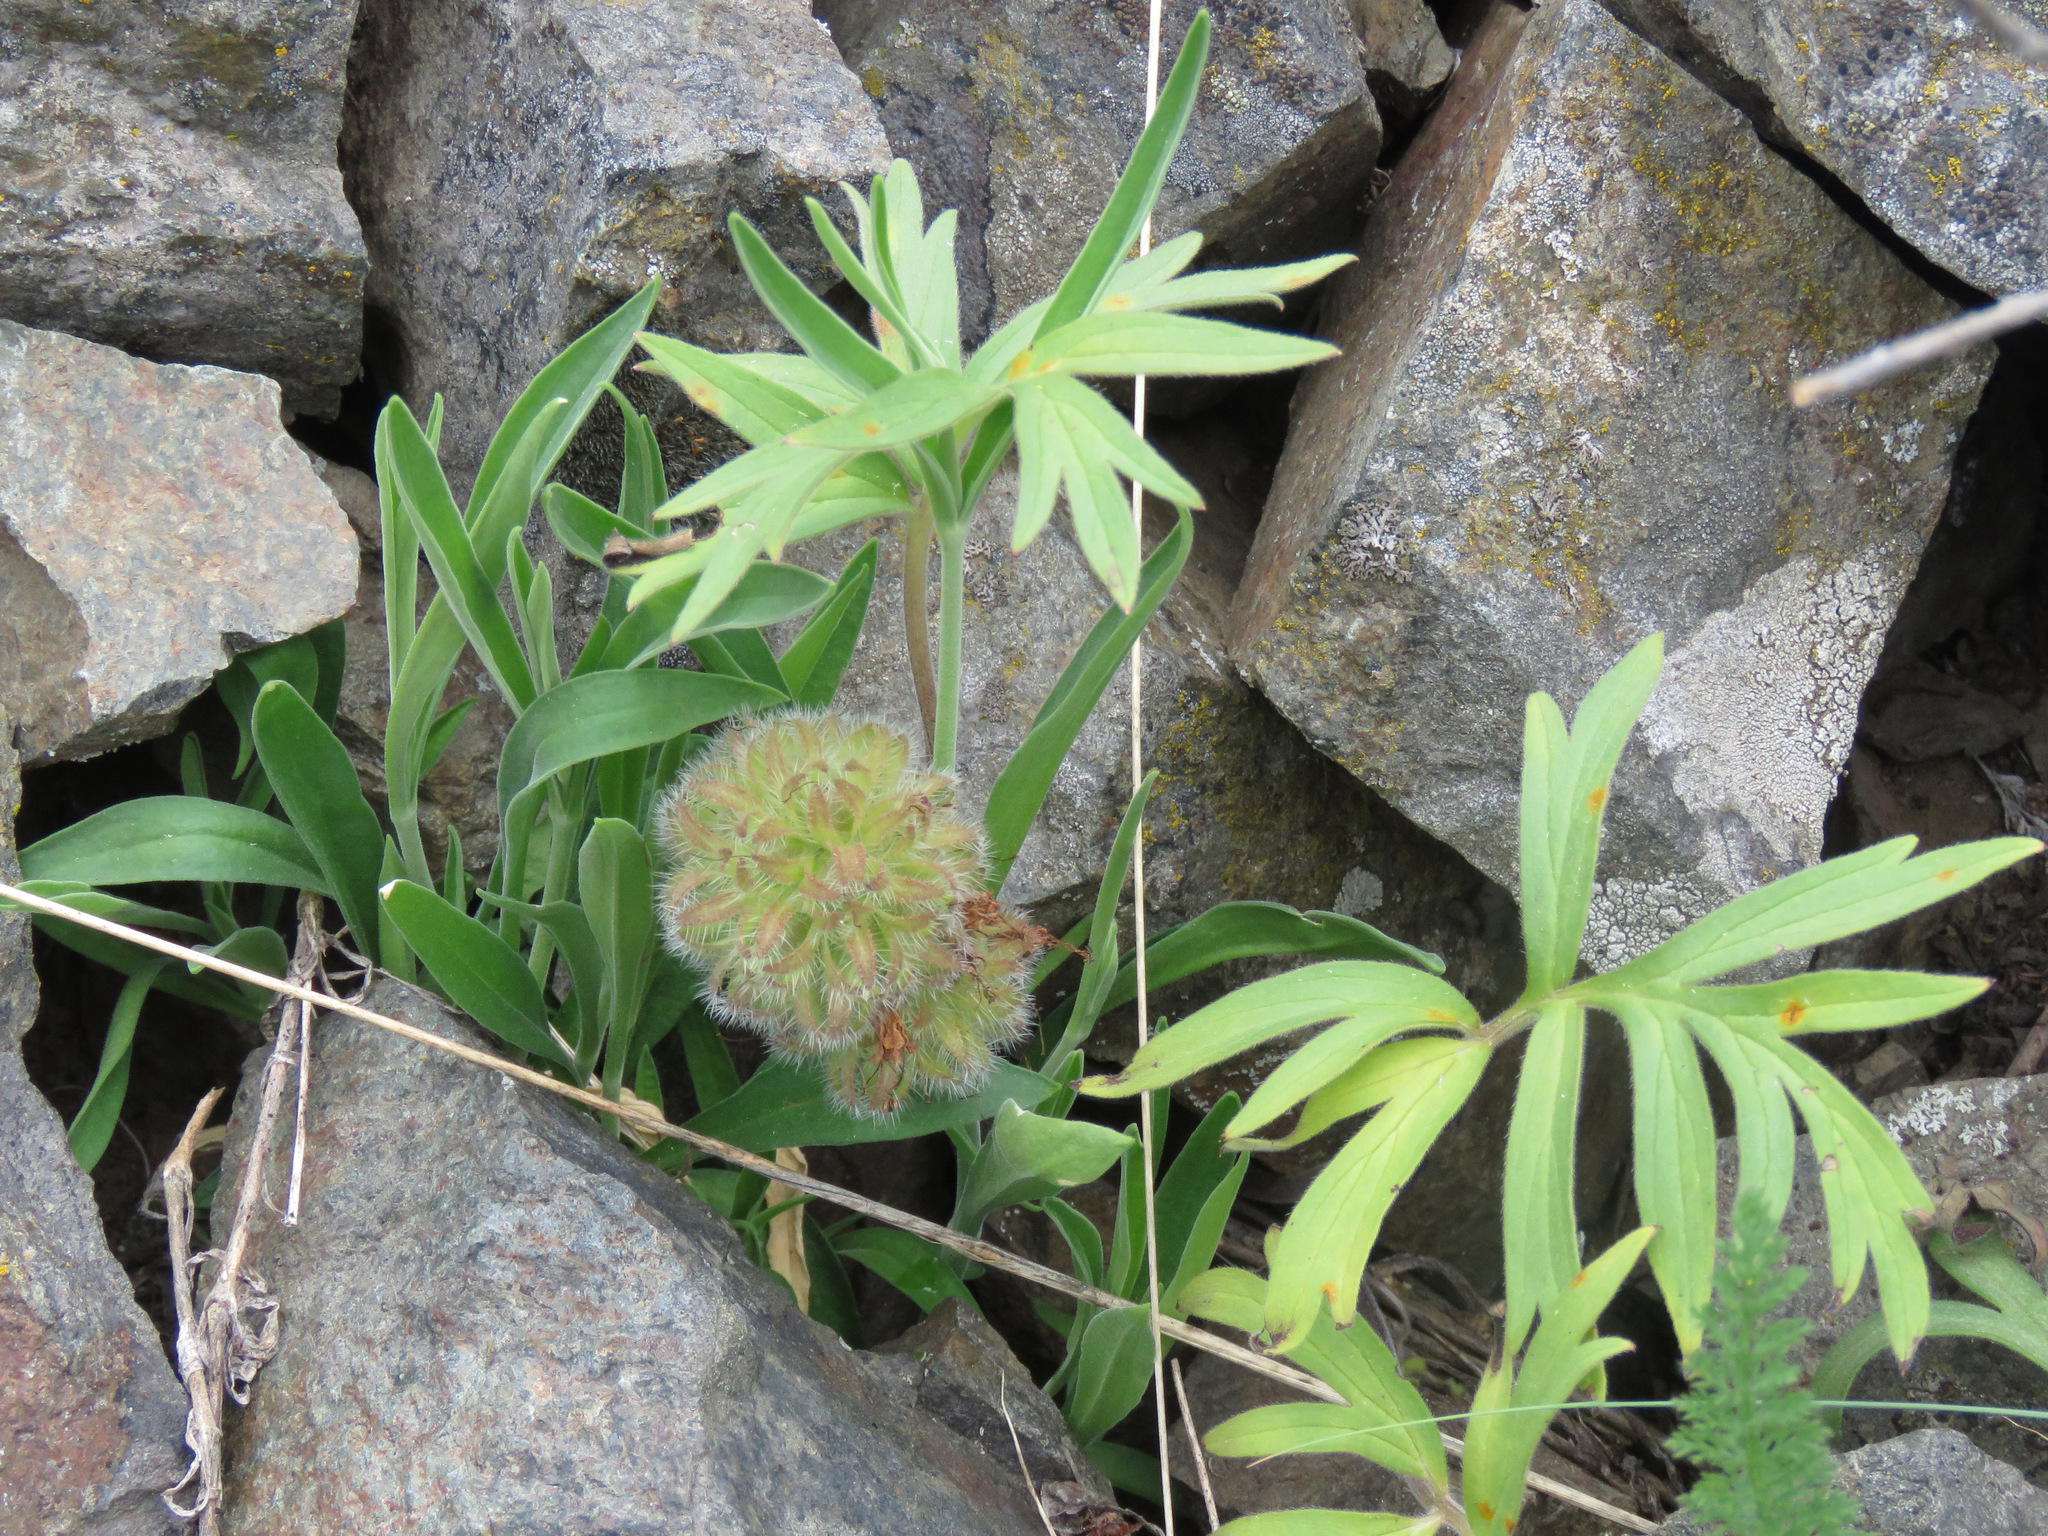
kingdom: Plantae
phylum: Tracheophyta
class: Magnoliopsida
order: Boraginales
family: Hydrophyllaceae
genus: Hydrophyllum
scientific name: Hydrophyllum capitatum
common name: Woollen-breeches
